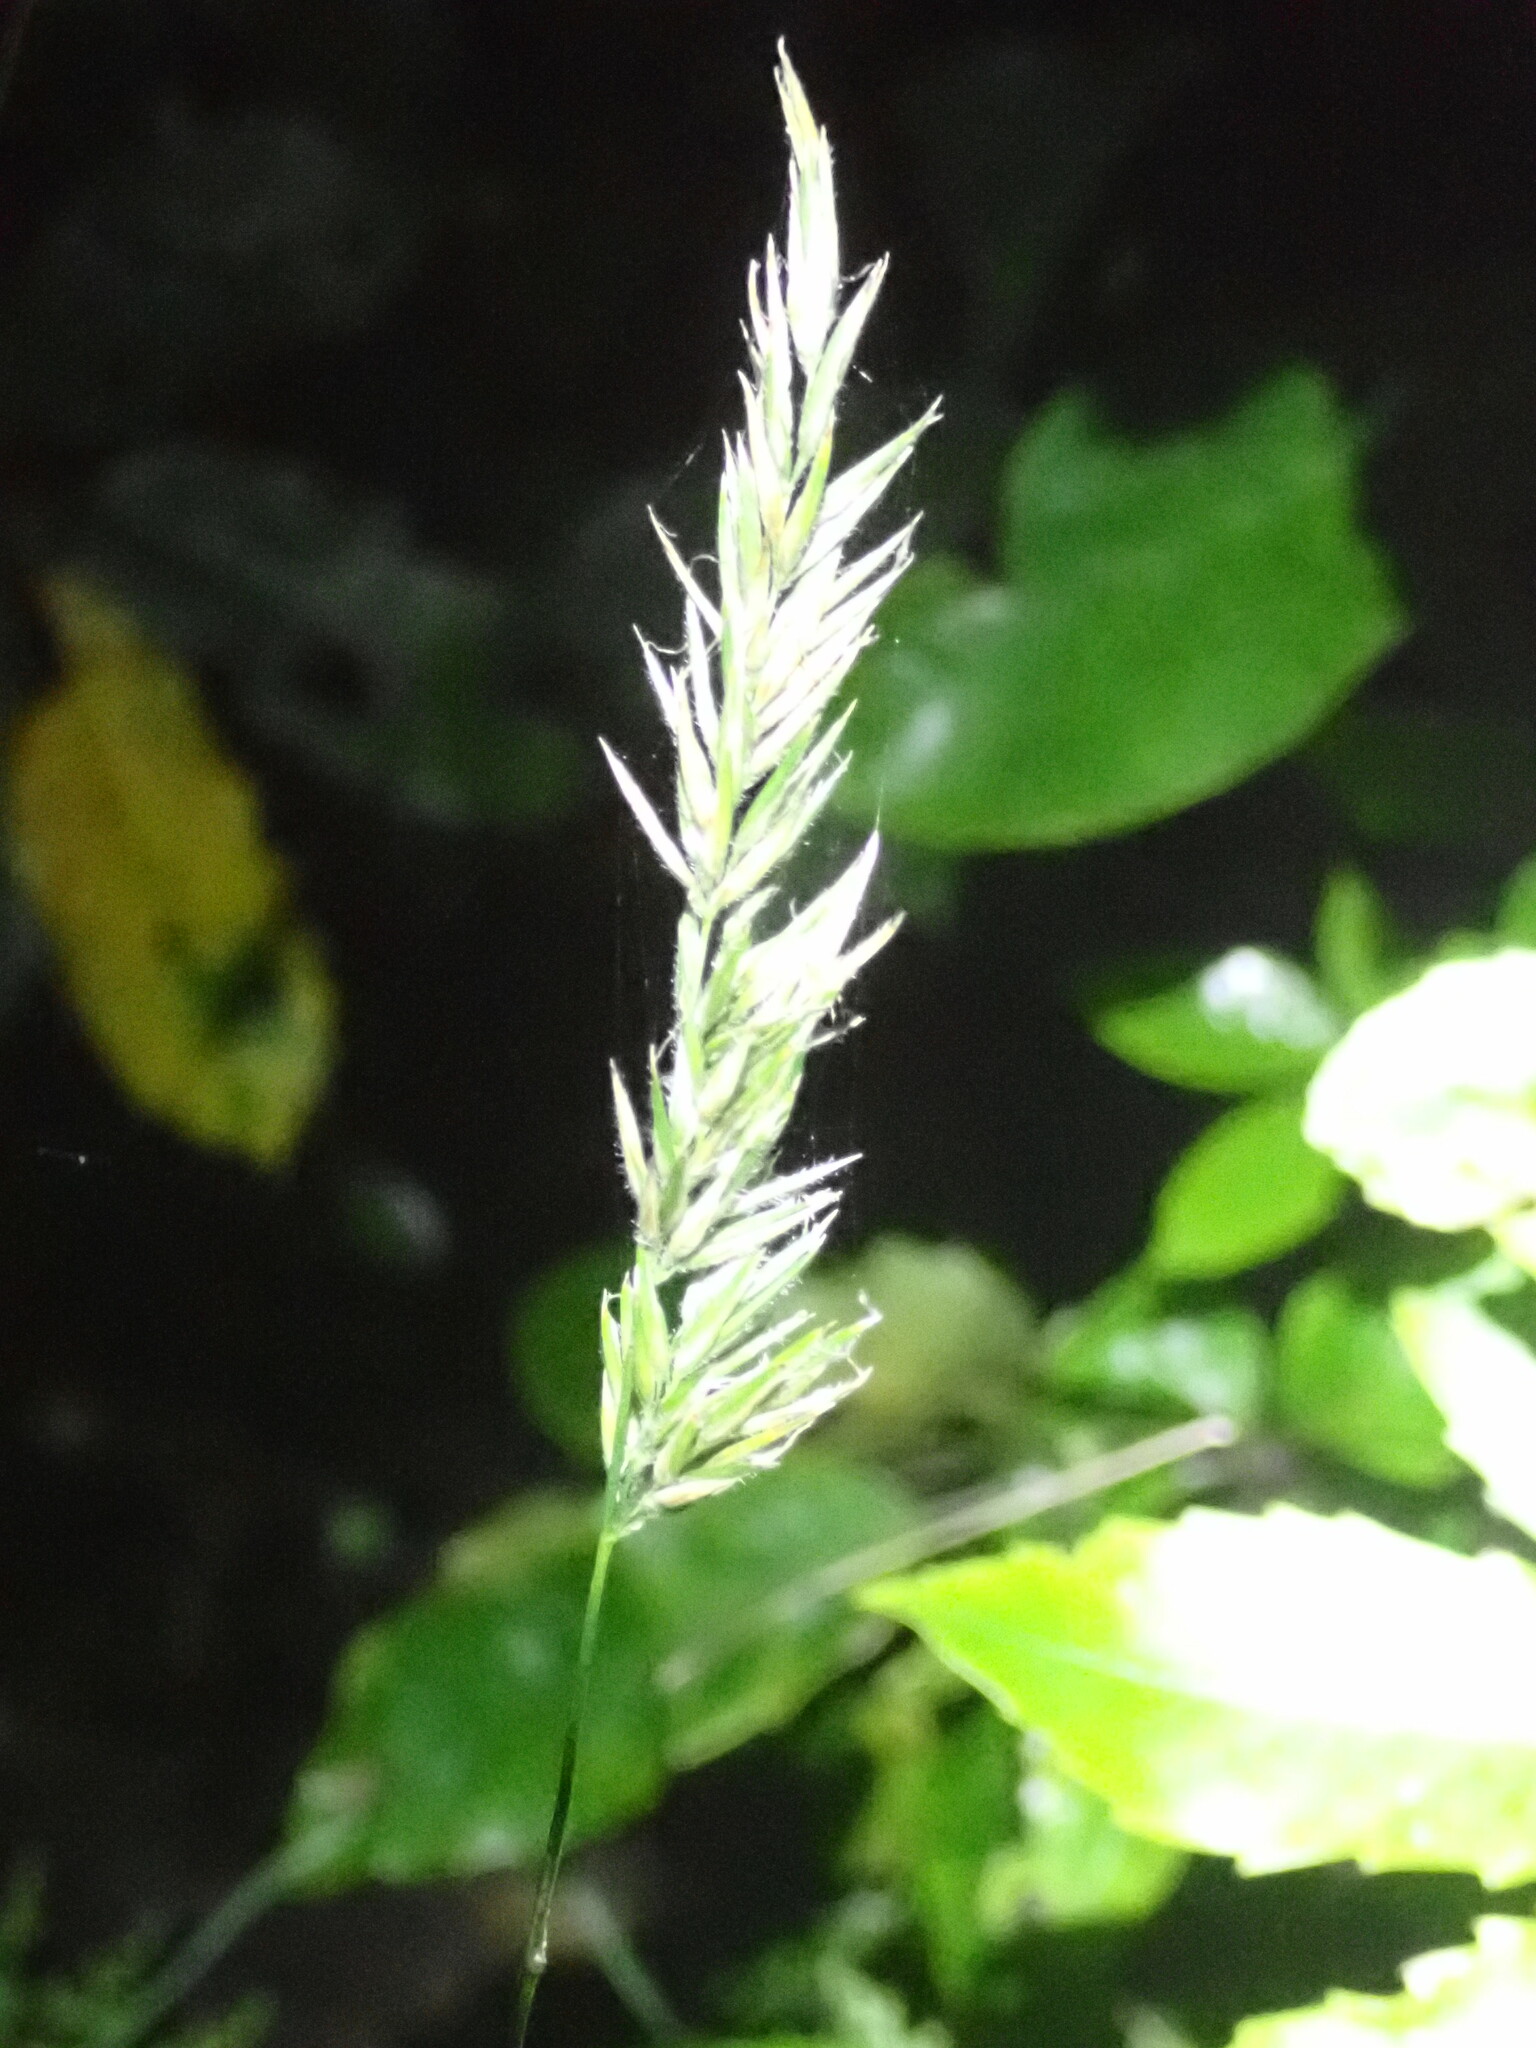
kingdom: Plantae
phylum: Tracheophyta
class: Liliopsida
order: Poales
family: Poaceae
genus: Anthoxanthum
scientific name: Anthoxanthum odoratum
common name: Sweet vernalgrass
